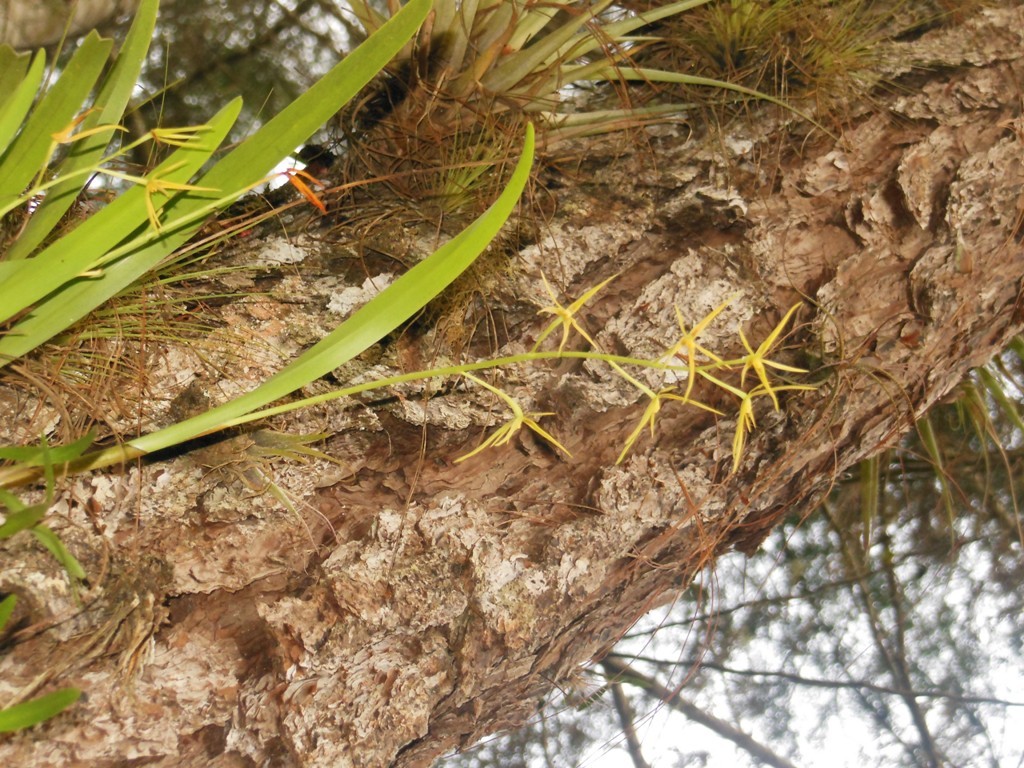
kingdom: Plantae
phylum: Tracheophyta
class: Liliopsida
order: Asparagales
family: Orchidaceae
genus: Prosthechea
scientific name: Prosthechea rhynchophora
